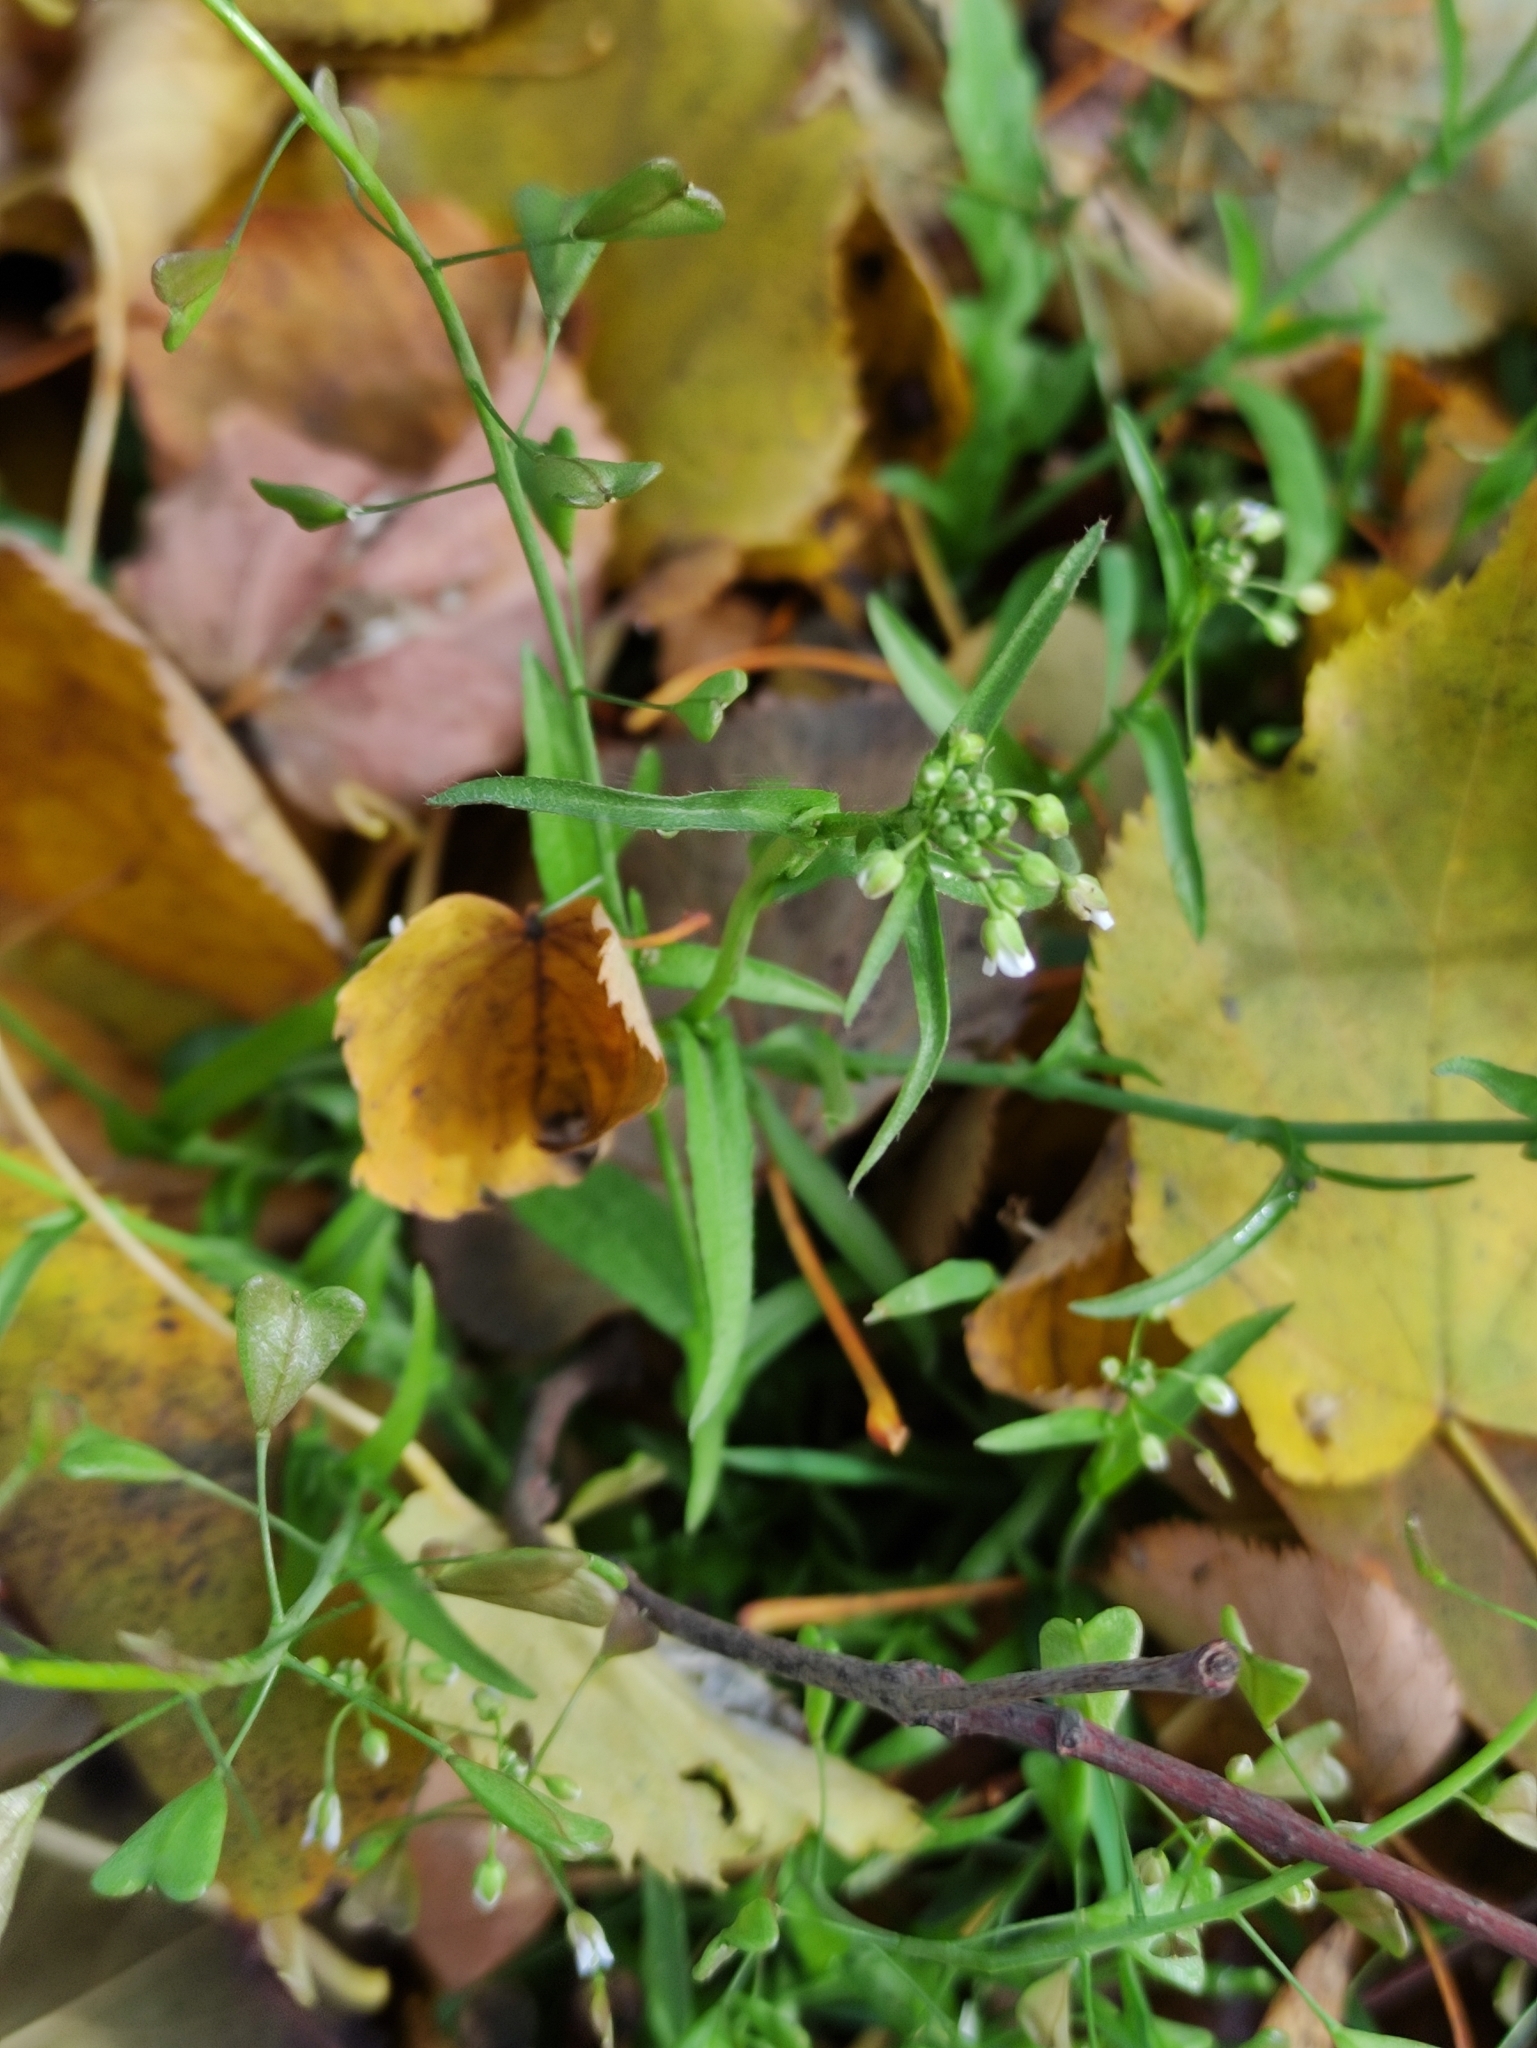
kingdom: Plantae
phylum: Tracheophyta
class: Magnoliopsida
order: Brassicales
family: Brassicaceae
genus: Capsella
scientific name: Capsella bursa-pastoris
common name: Shepherd's purse
